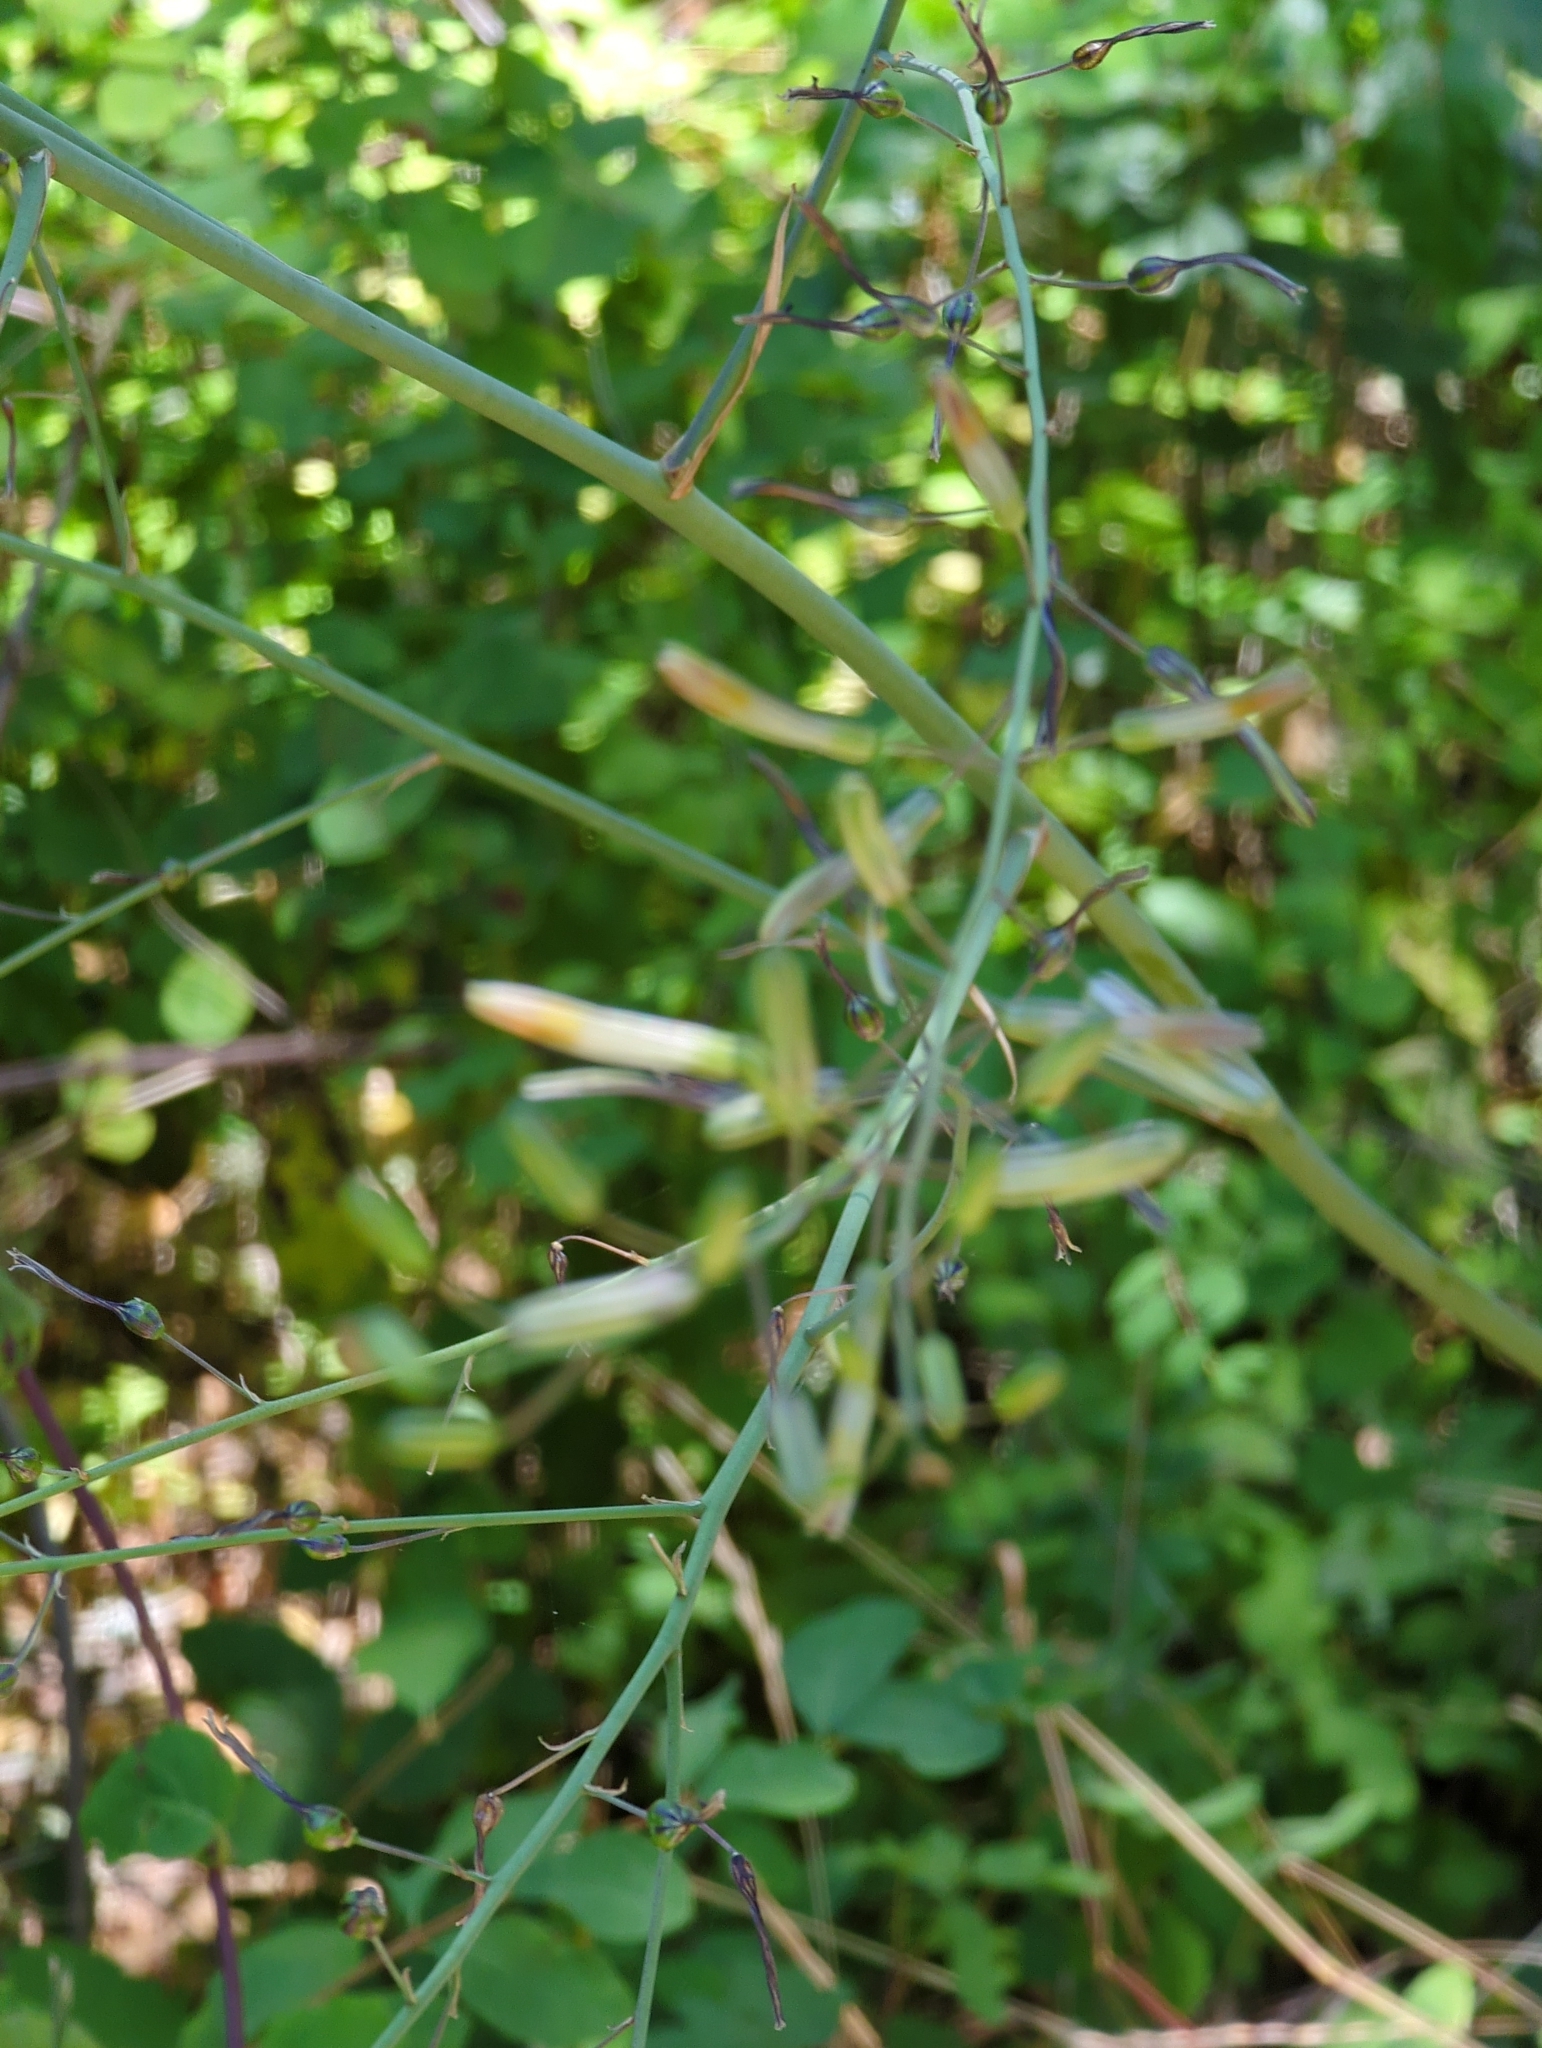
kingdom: Plantae
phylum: Tracheophyta
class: Liliopsida
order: Asparagales
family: Asparagaceae
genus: Chlorogalum
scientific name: Chlorogalum pomeridianum
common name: Amole
